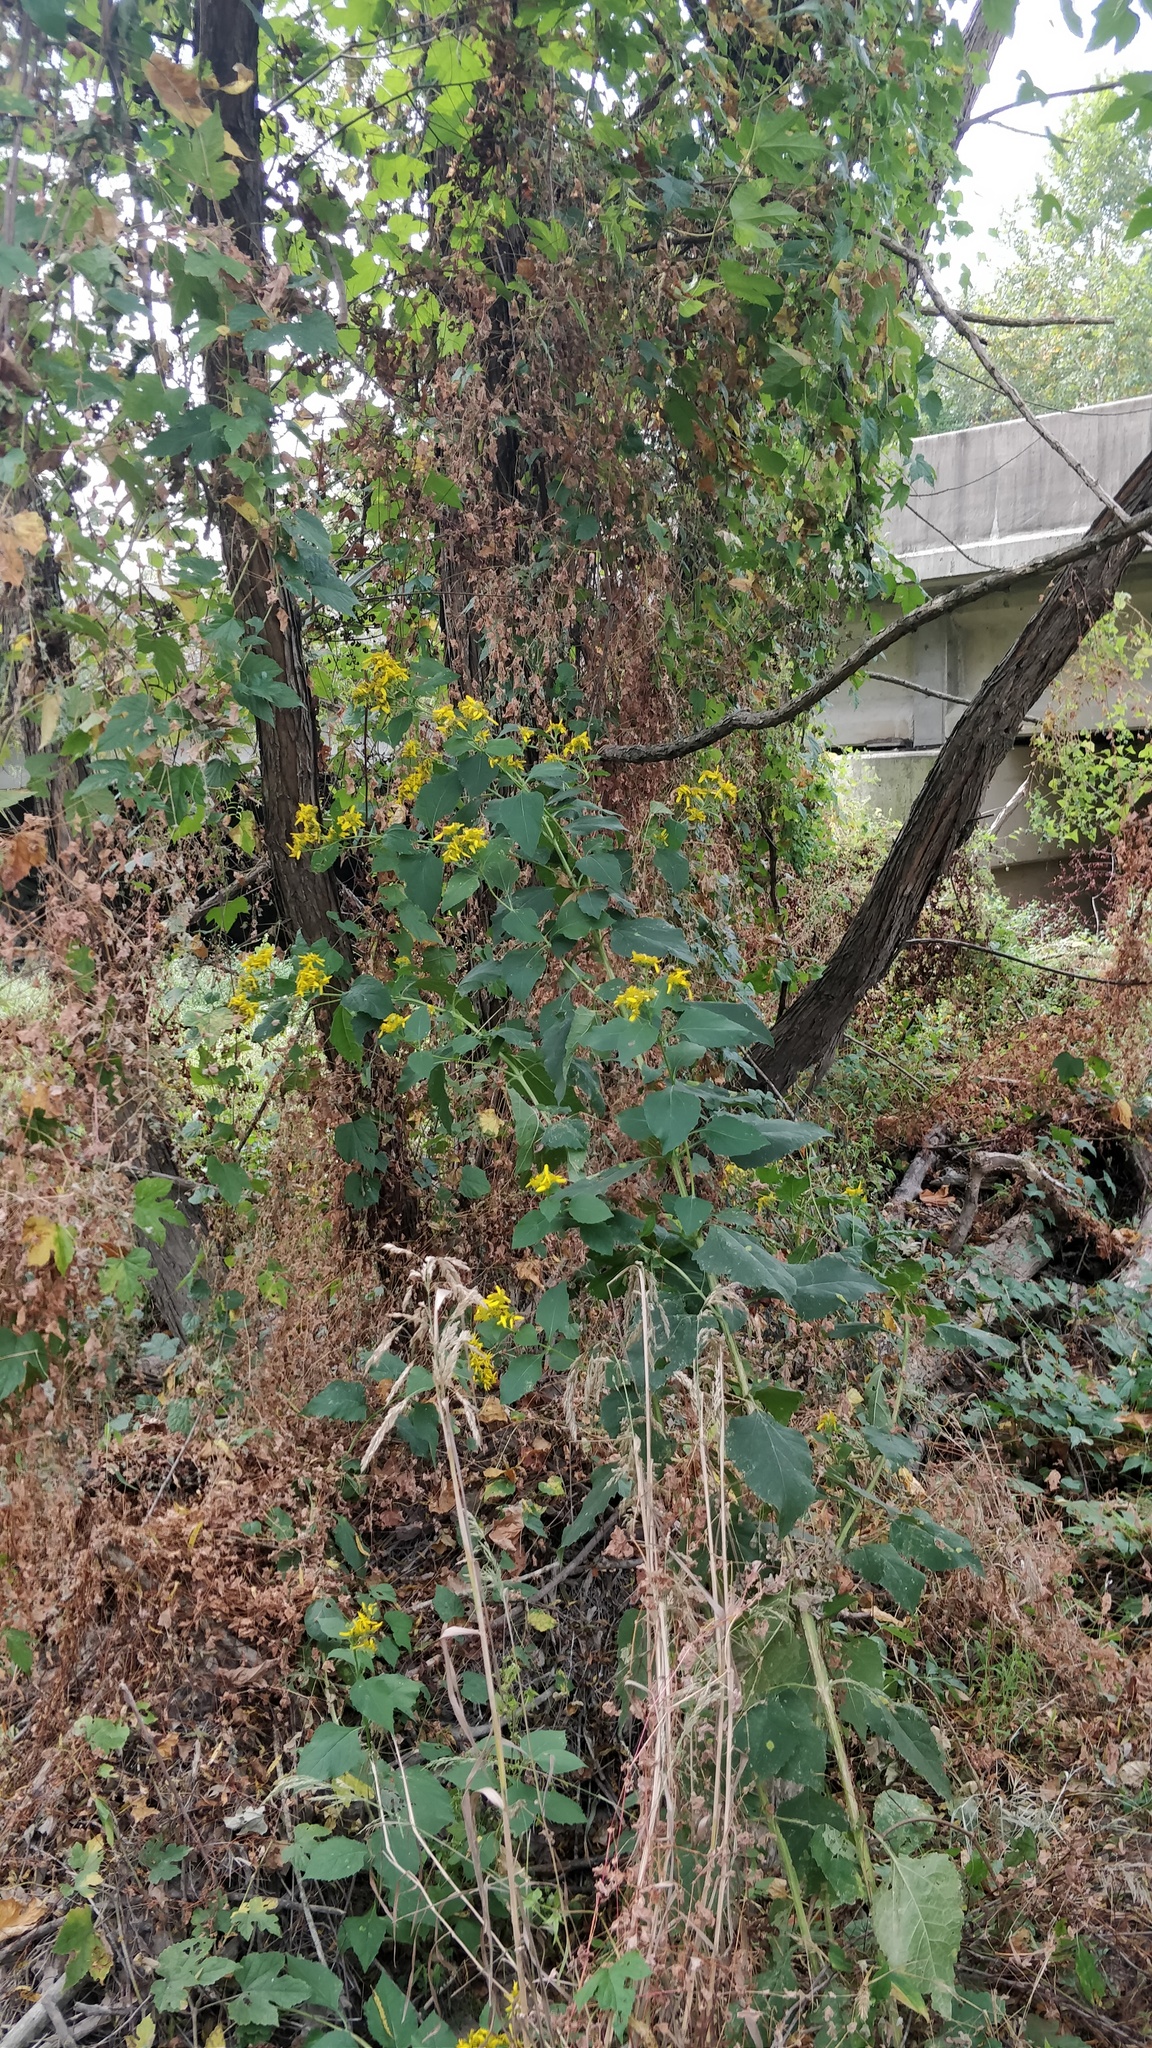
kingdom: Plantae
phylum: Tracheophyta
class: Magnoliopsida
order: Asterales
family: Asteraceae
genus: Verbesina
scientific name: Verbesina occidentalis
